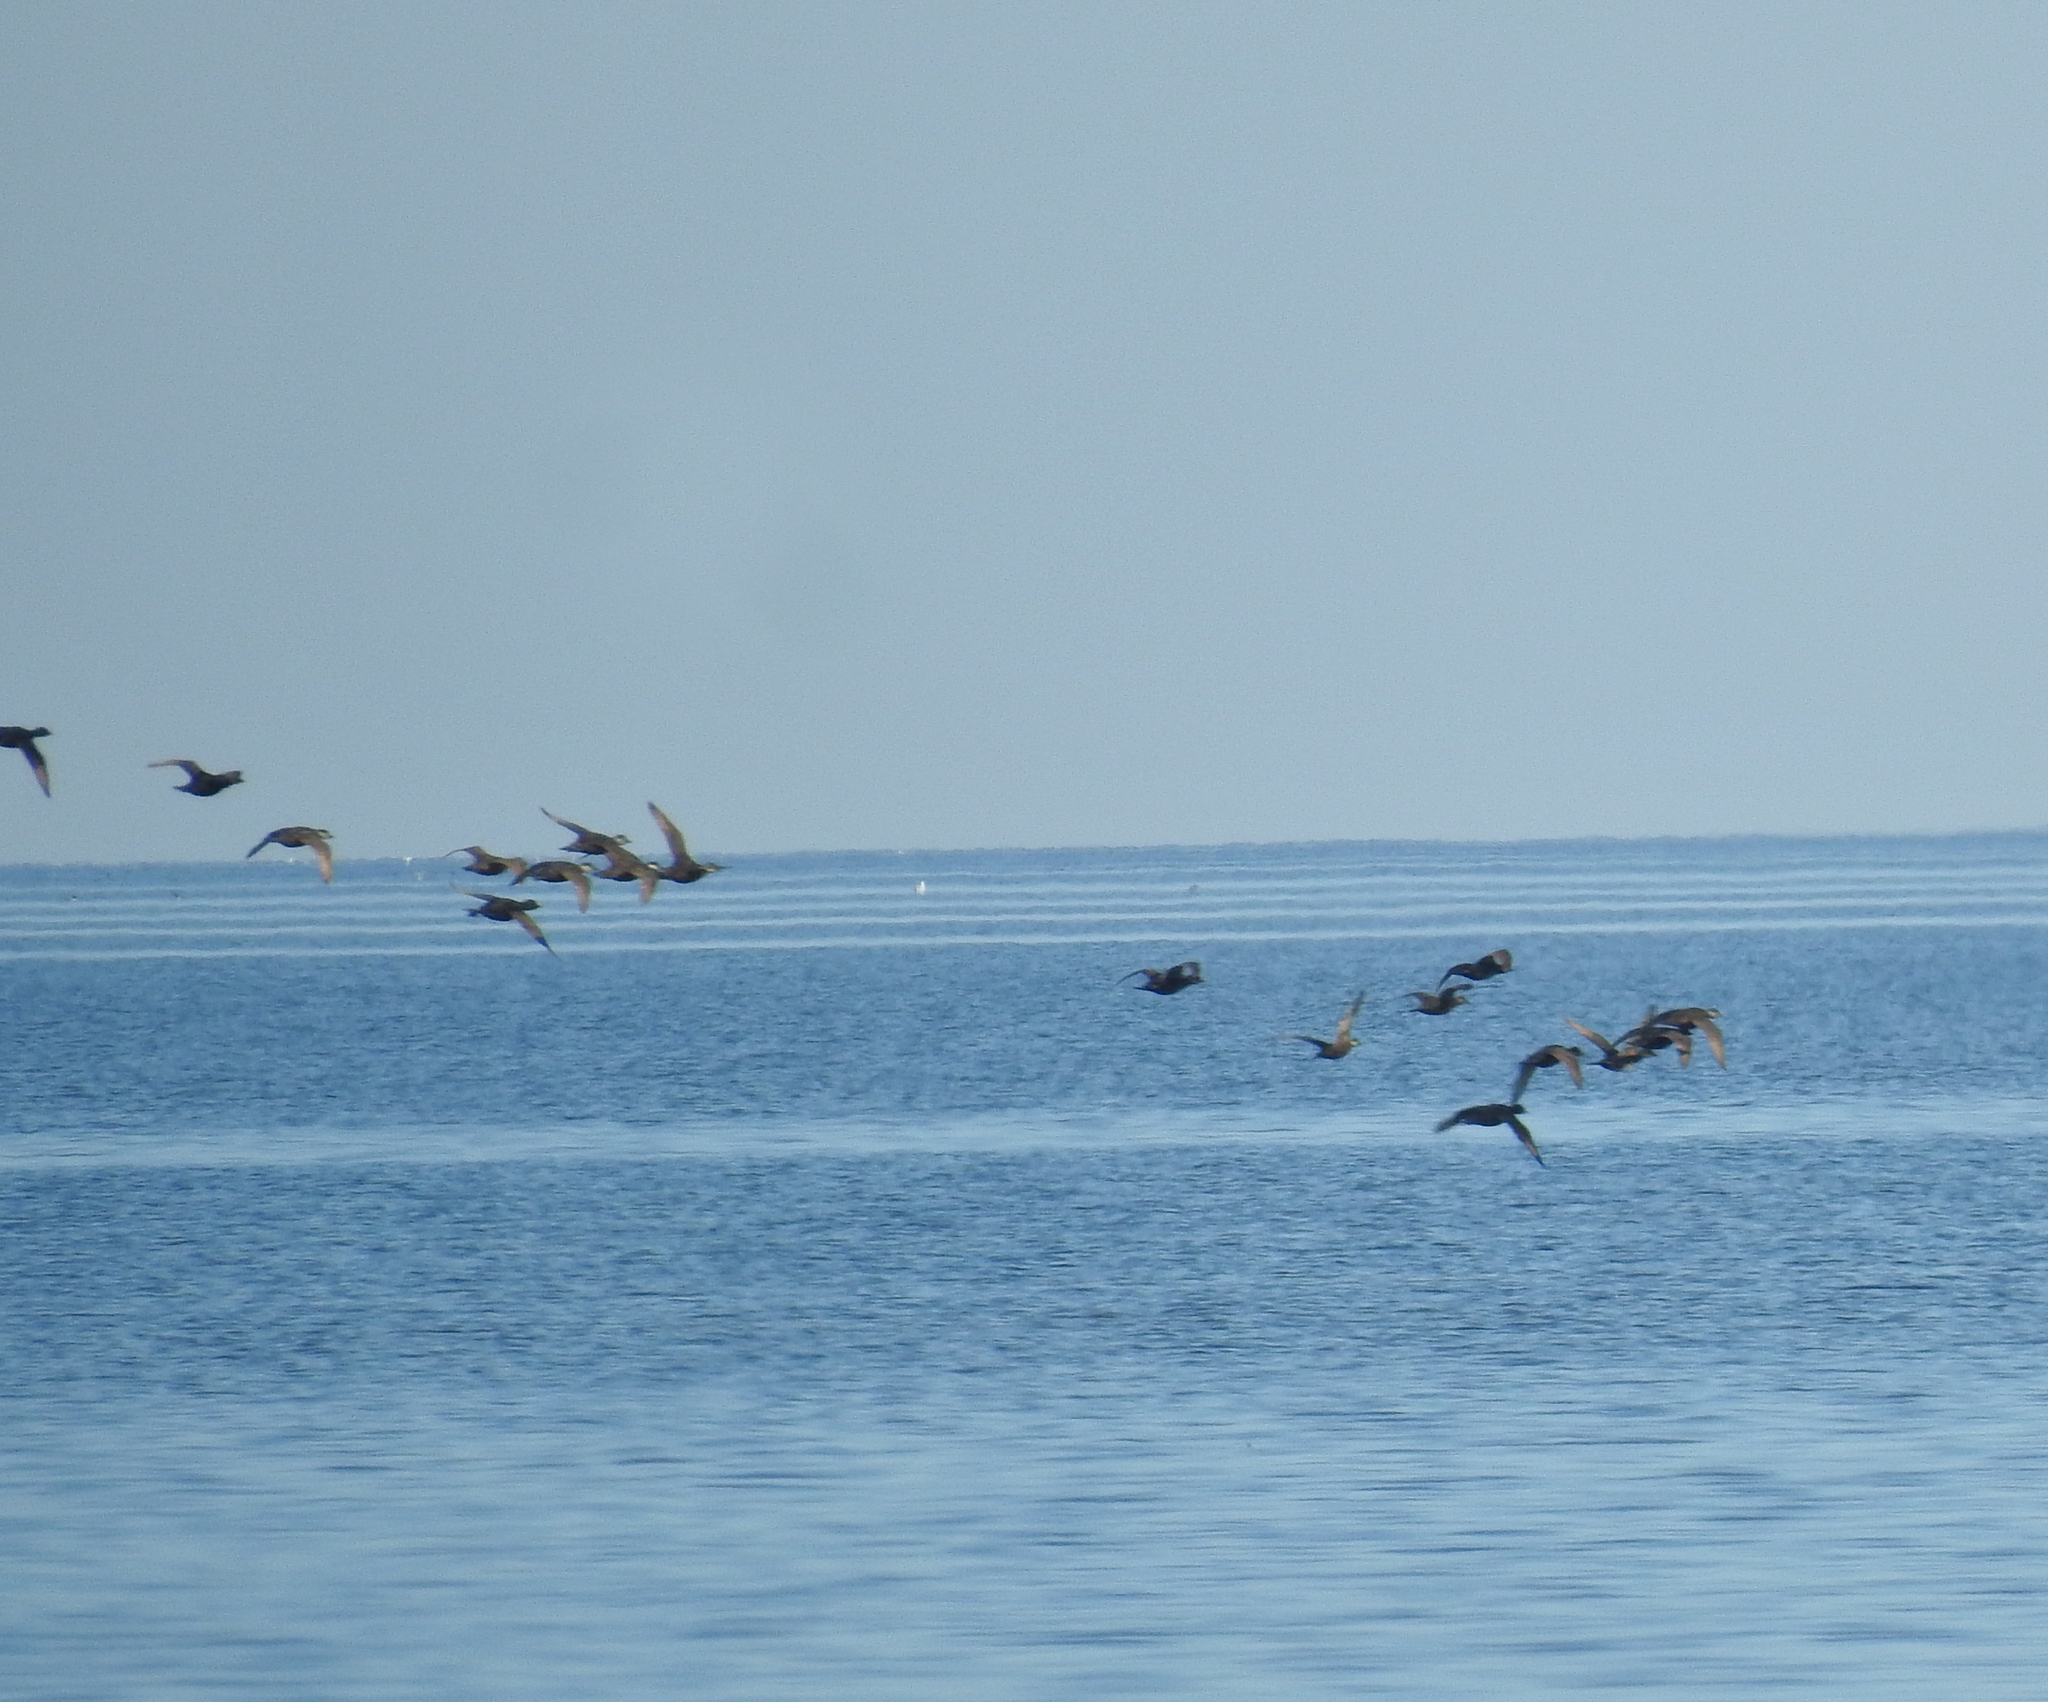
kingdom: Animalia
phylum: Chordata
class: Aves
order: Anseriformes
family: Anatidae
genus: Melanitta
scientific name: Melanitta nigra
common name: Common scoter
